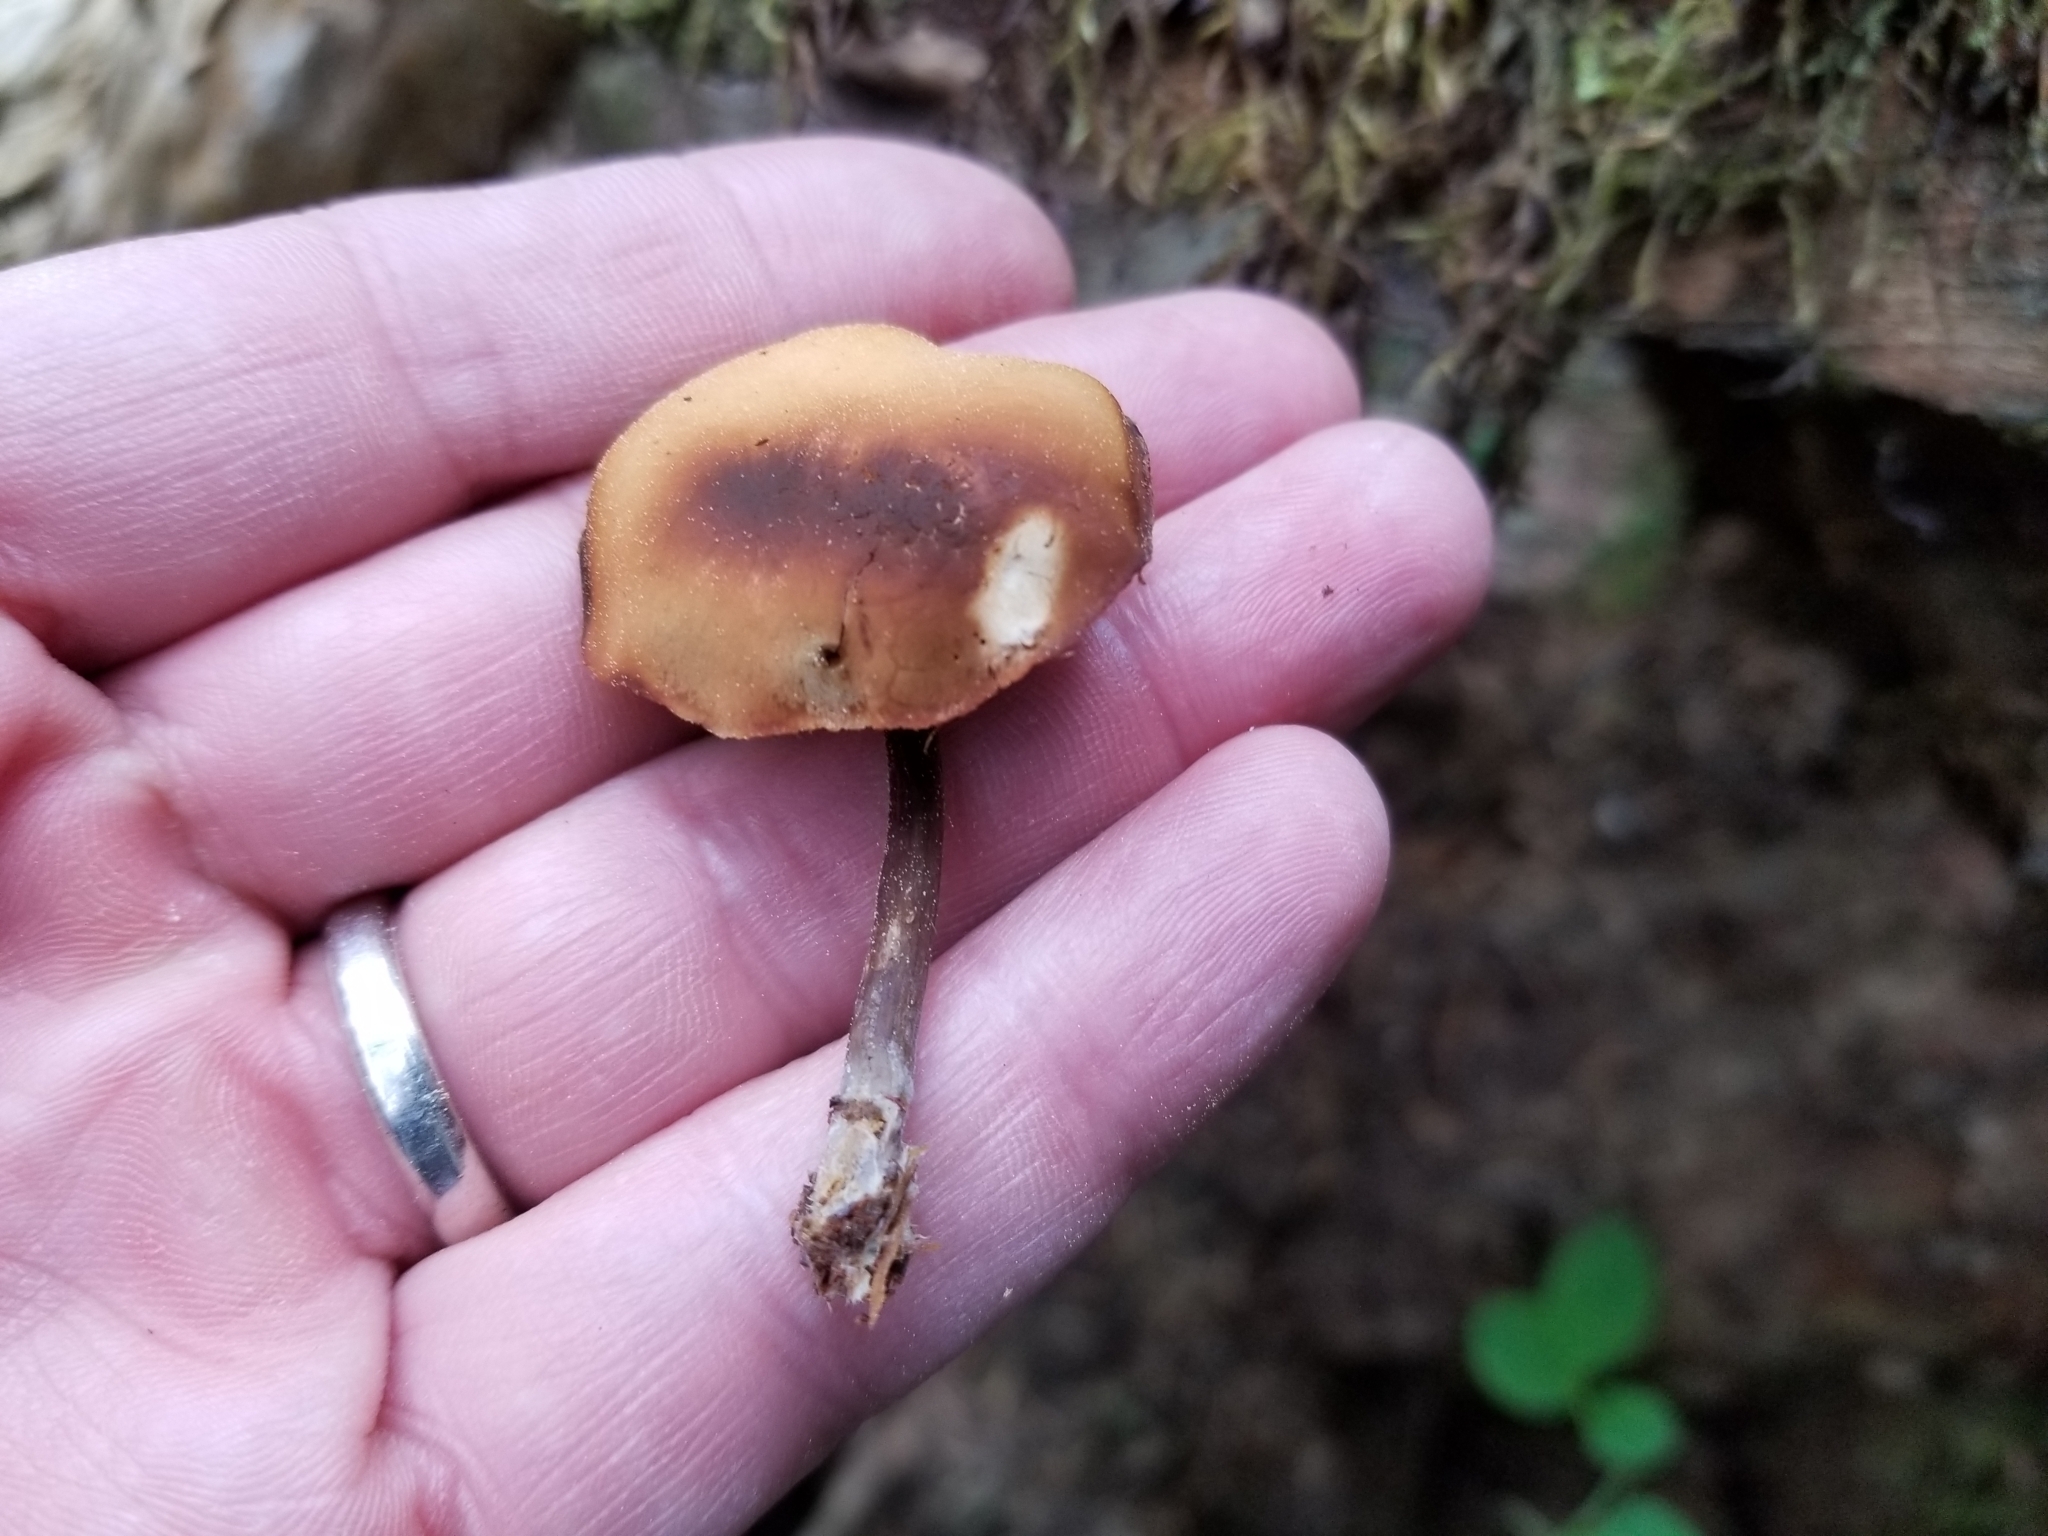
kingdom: Fungi
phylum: Basidiomycota
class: Agaricomycetes
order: Agaricales
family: Strophariaceae
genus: Pholiota
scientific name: Pholiota lignicola
